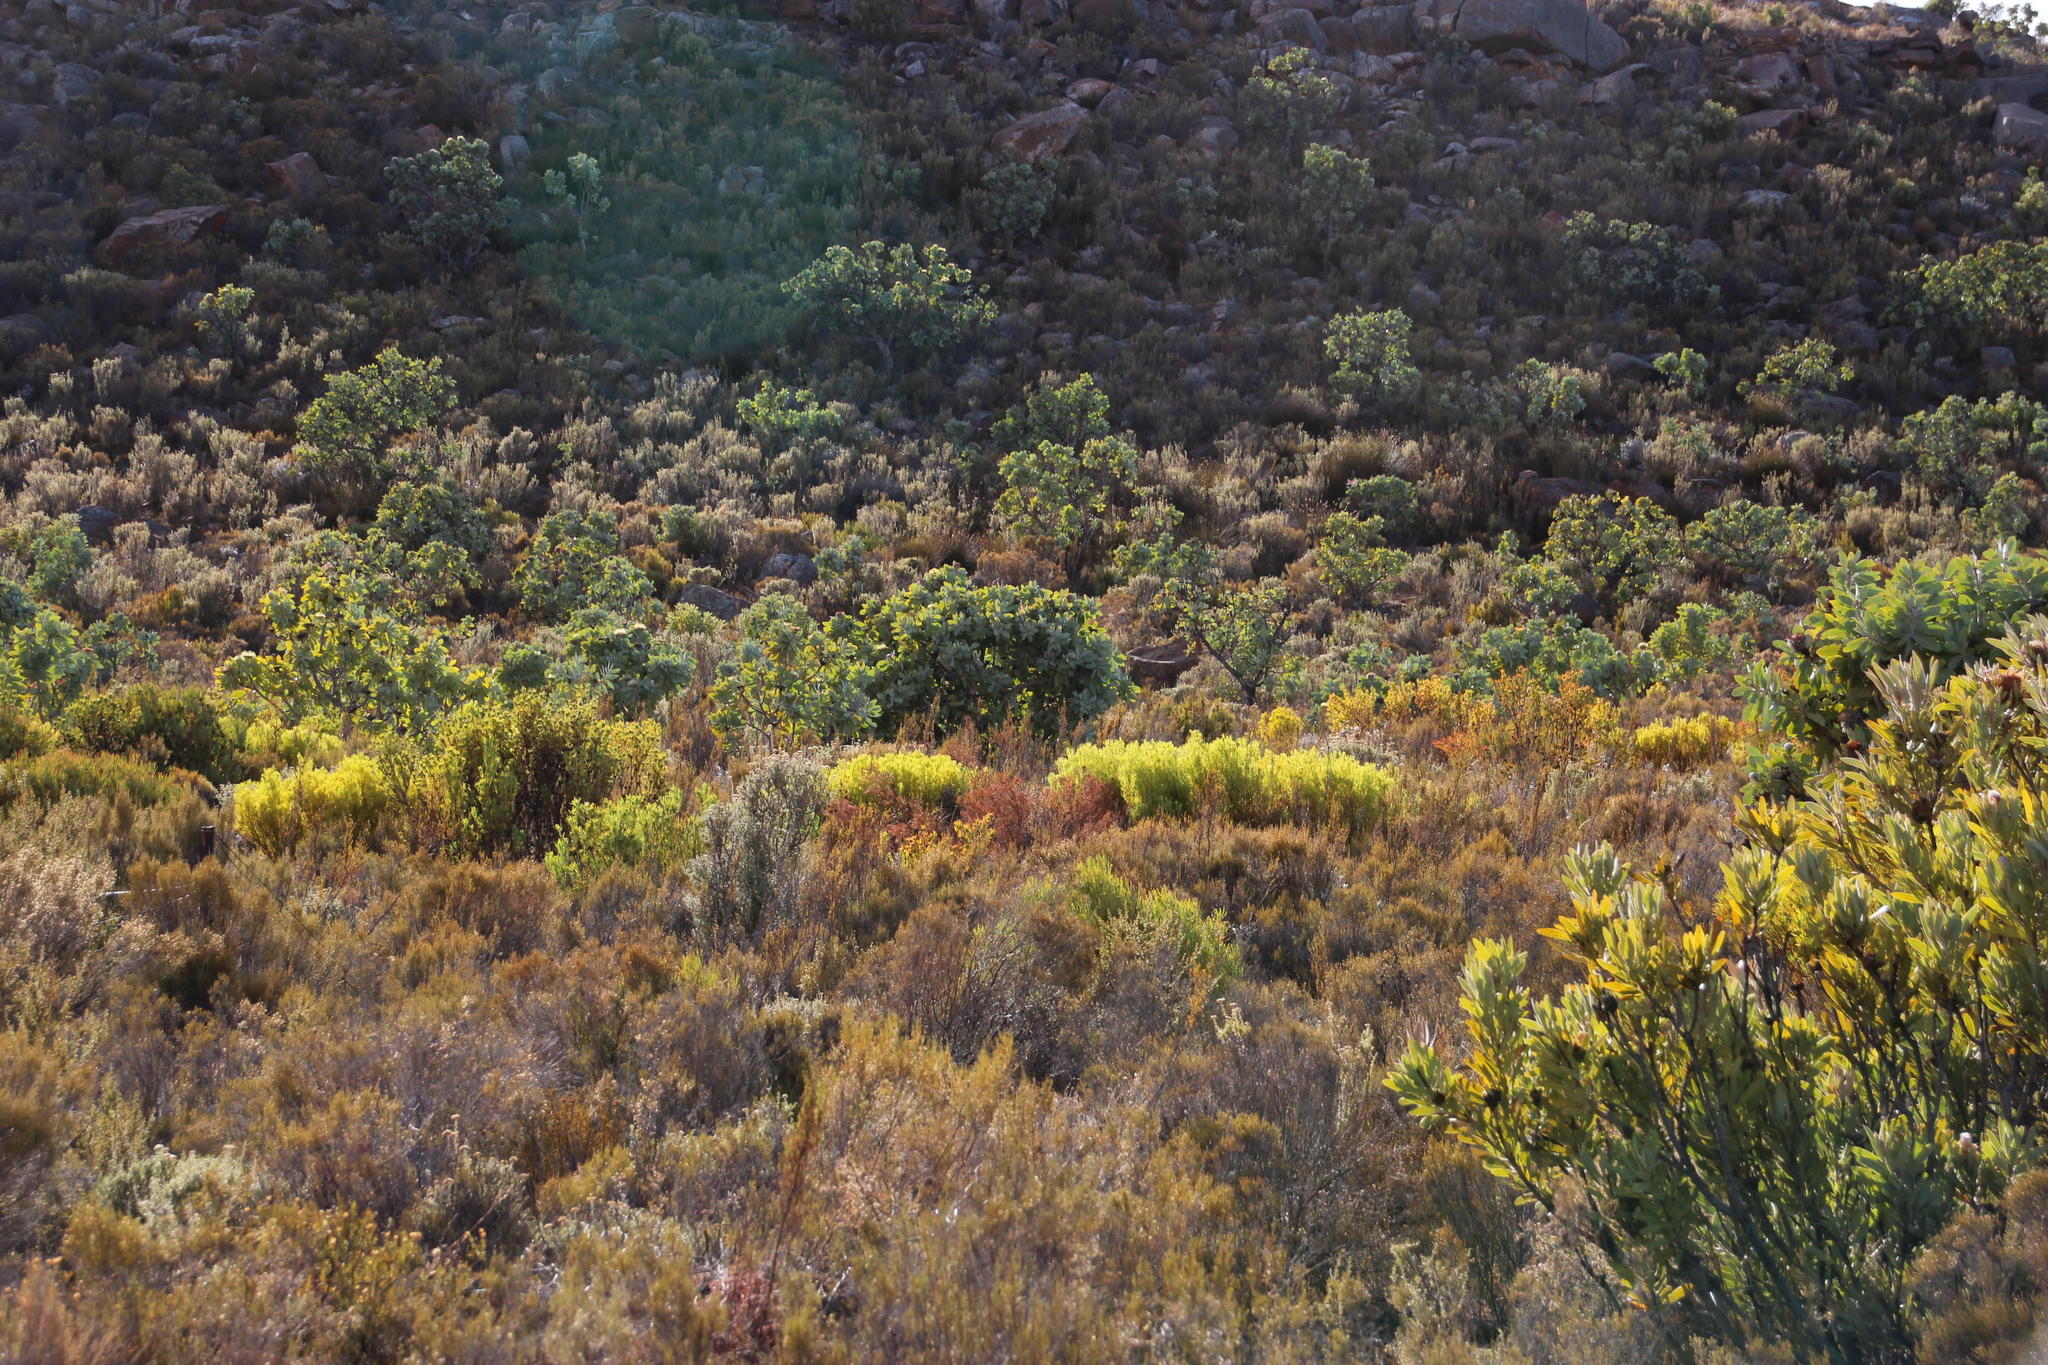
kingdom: Plantae
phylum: Tracheophyta
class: Magnoliopsida
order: Proteales
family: Proteaceae
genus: Leucadendron
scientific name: Leucadendron salignum
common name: Common sunshine conebush
